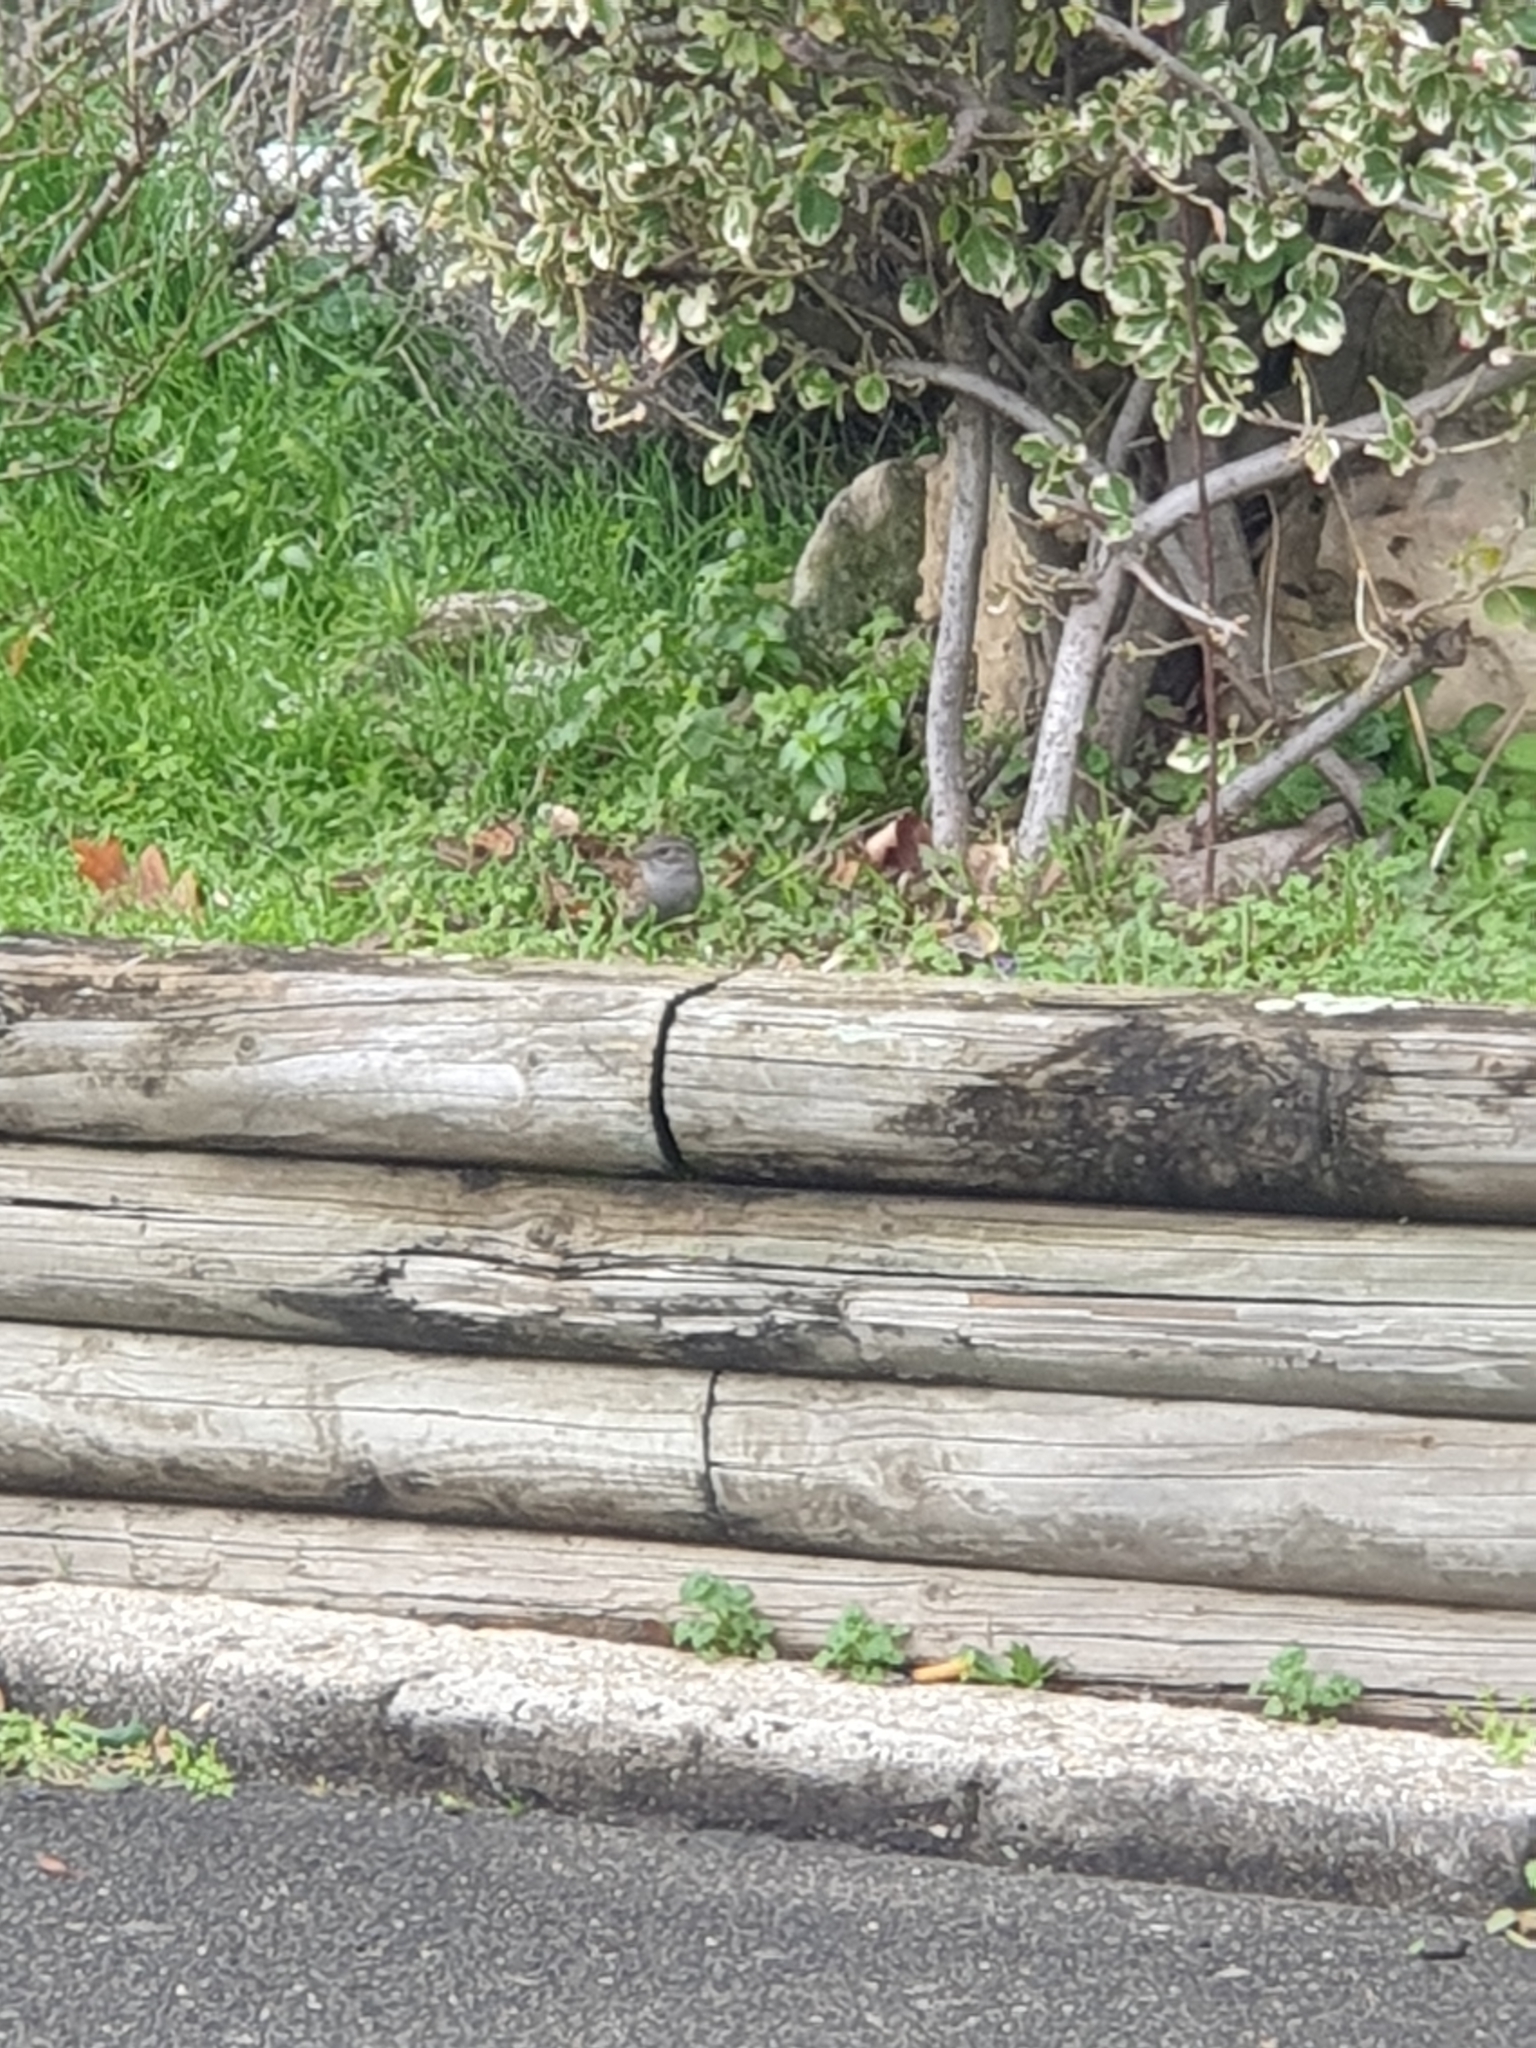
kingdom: Animalia
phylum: Chordata
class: Aves
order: Passeriformes
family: Prunellidae
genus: Prunella
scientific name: Prunella modularis
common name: Dunnock
